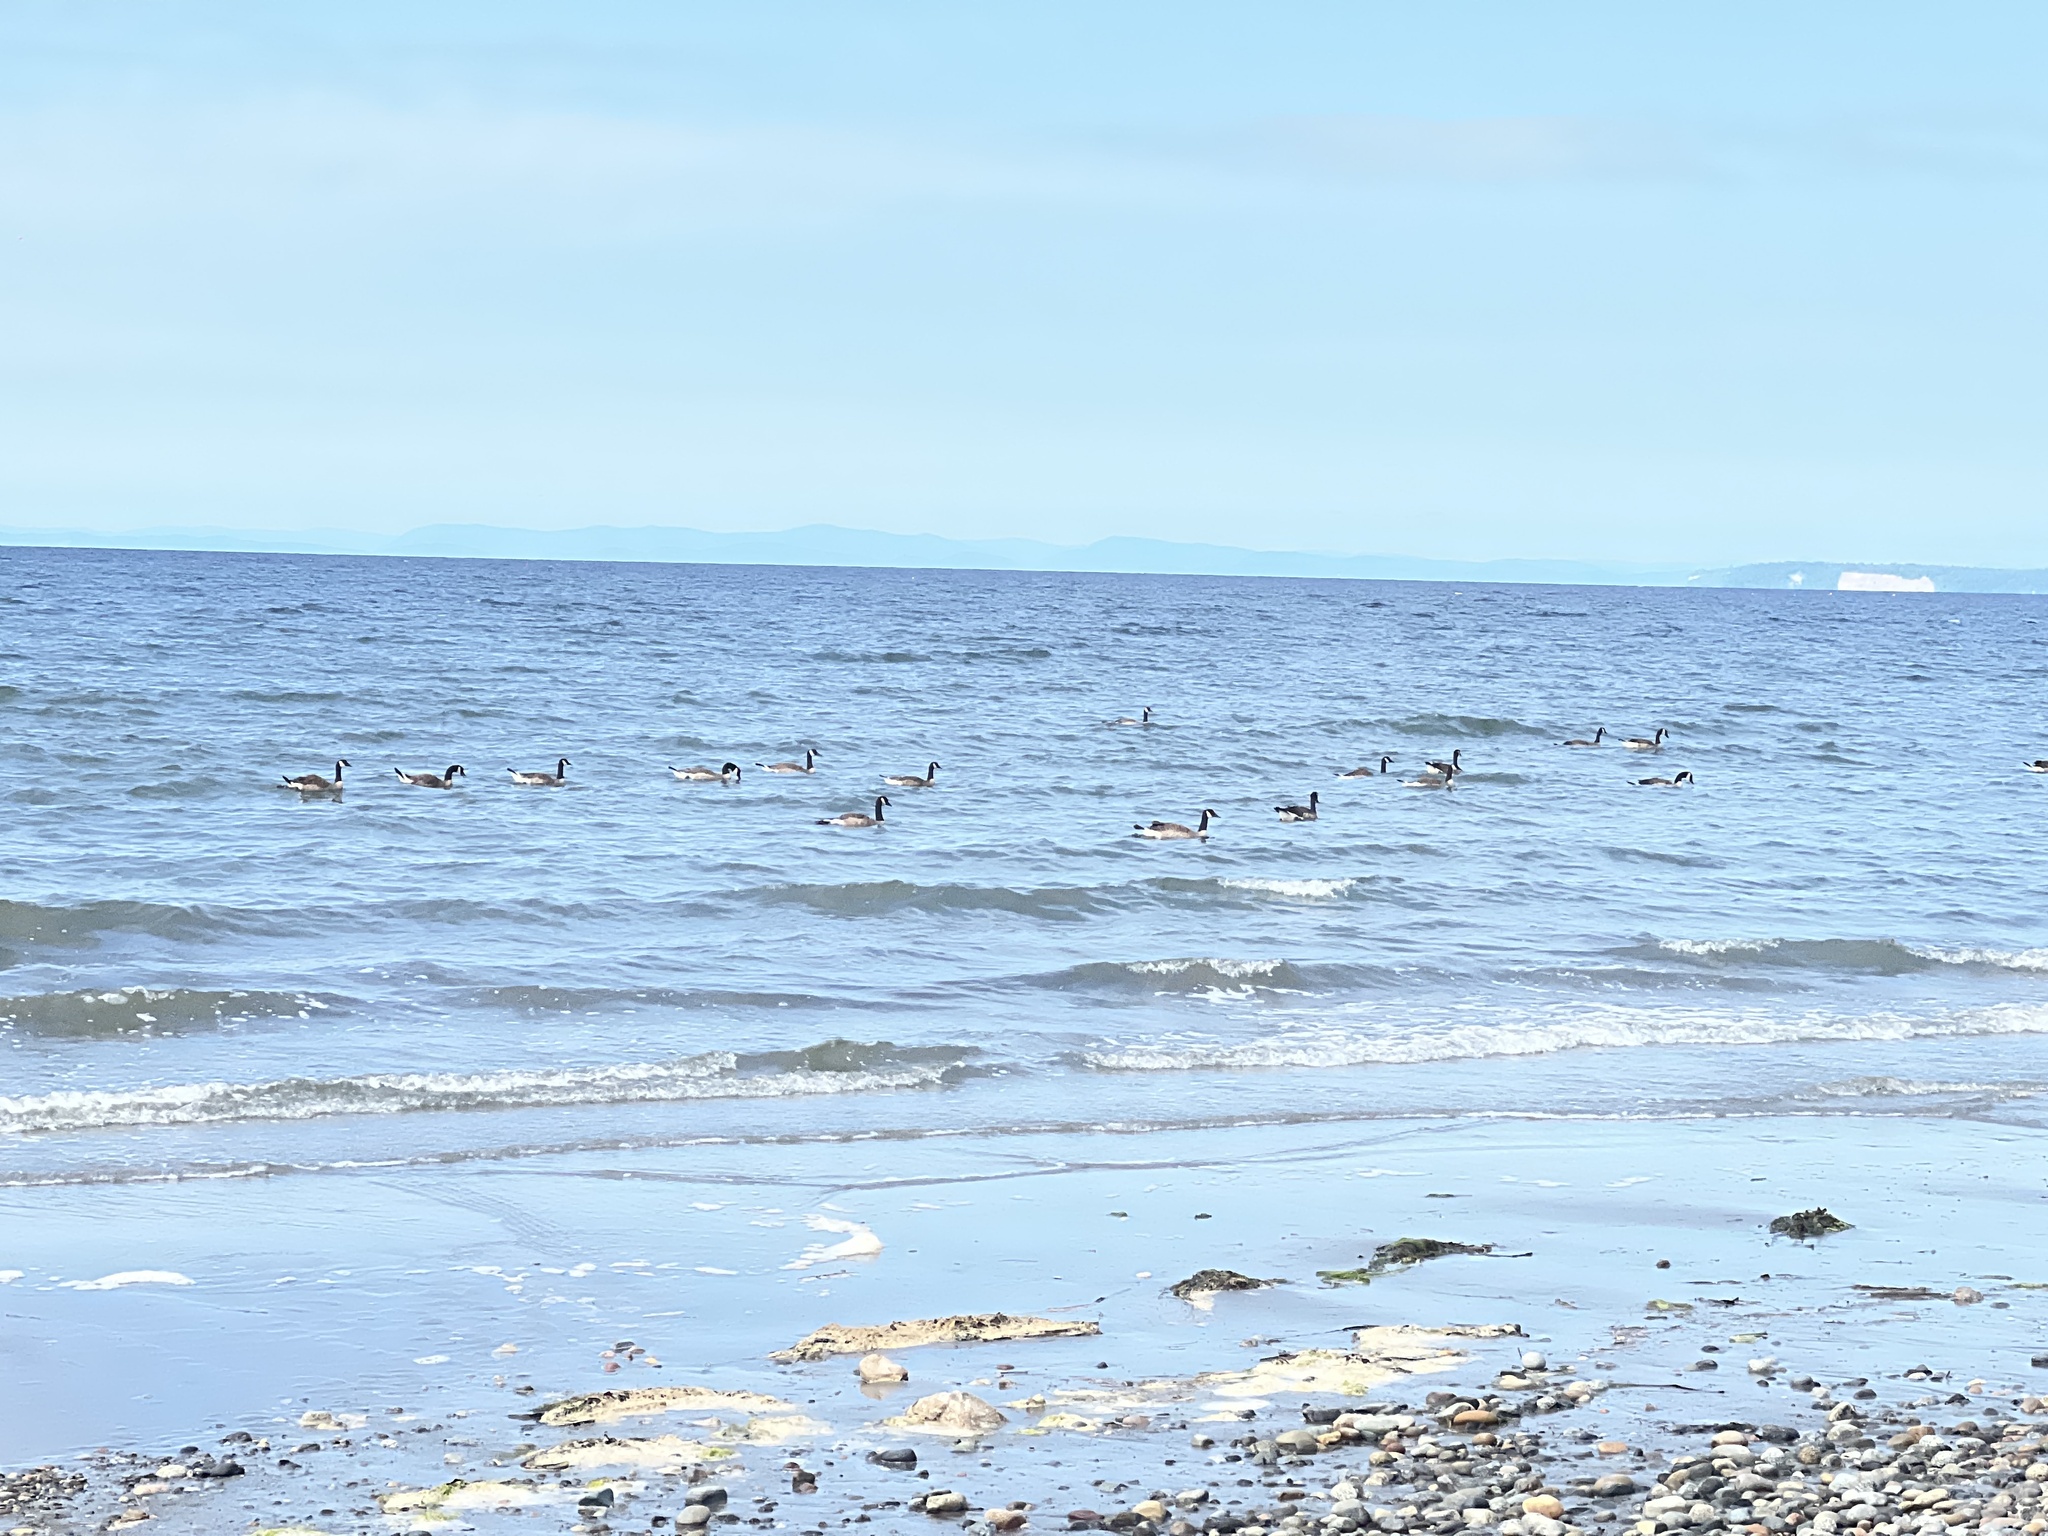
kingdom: Animalia
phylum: Chordata
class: Aves
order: Anseriformes
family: Anatidae
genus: Branta
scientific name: Branta canadensis
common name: Canada goose
